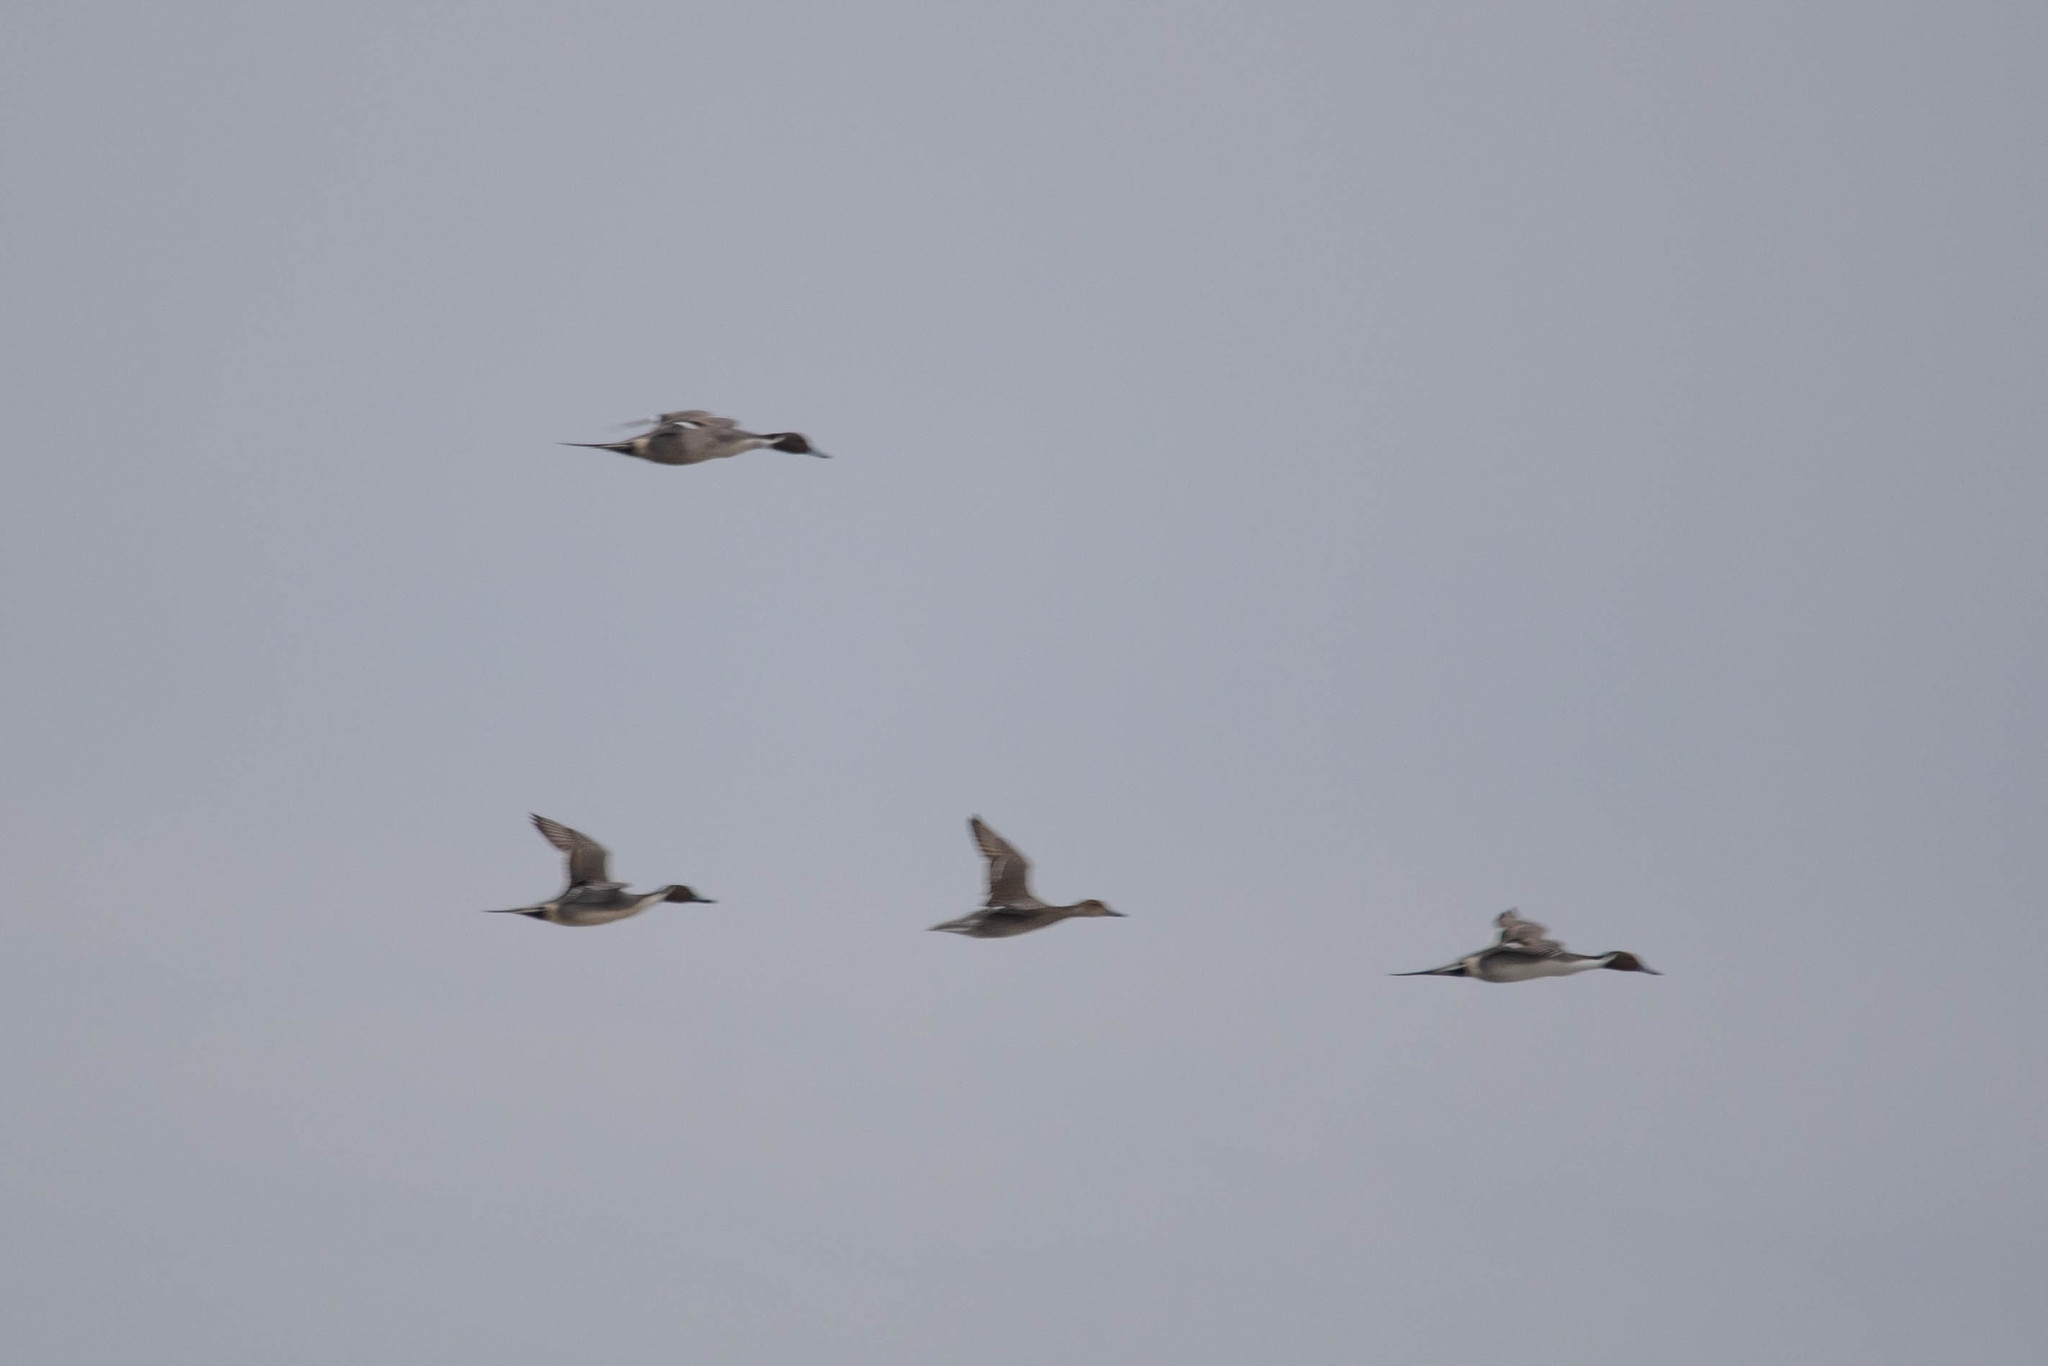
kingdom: Animalia
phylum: Chordata
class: Aves
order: Anseriformes
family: Anatidae
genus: Anas
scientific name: Anas acuta
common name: Northern pintail
